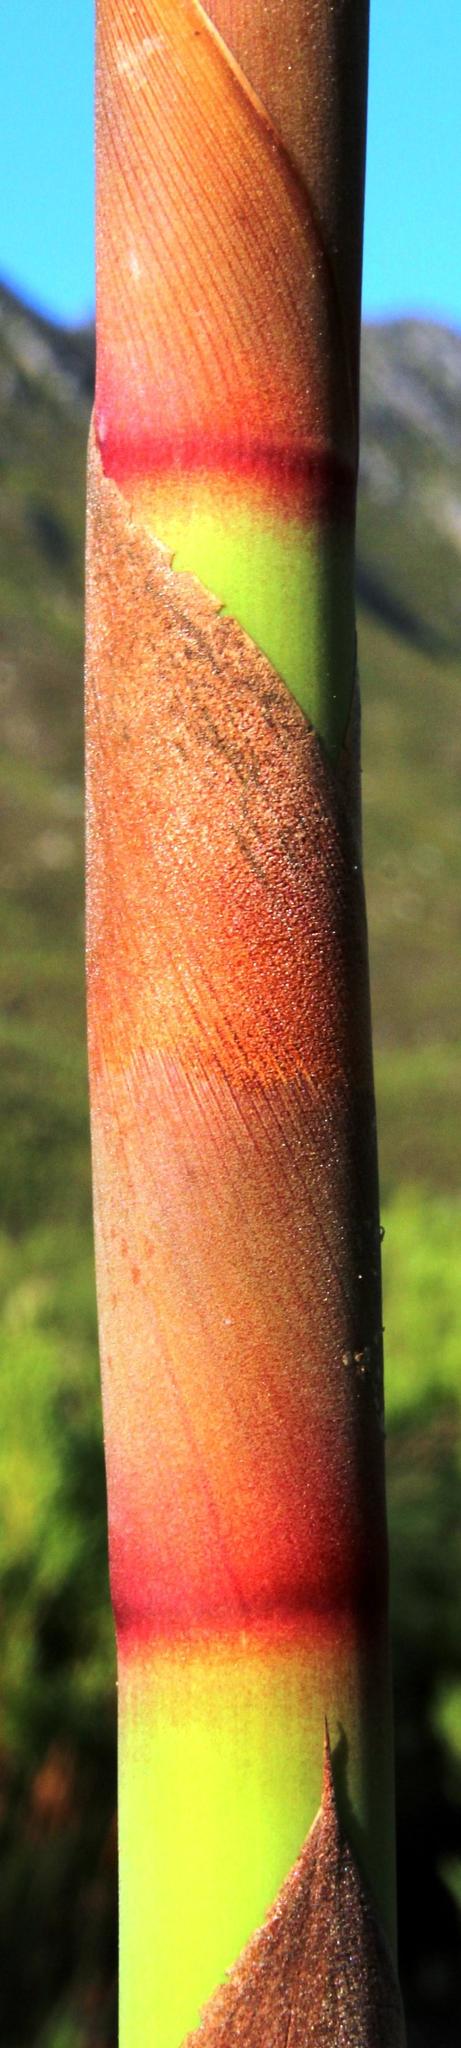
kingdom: Plantae
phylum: Tracheophyta
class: Liliopsida
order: Poales
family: Restionaceae
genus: Cannomois
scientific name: Cannomois grandis
